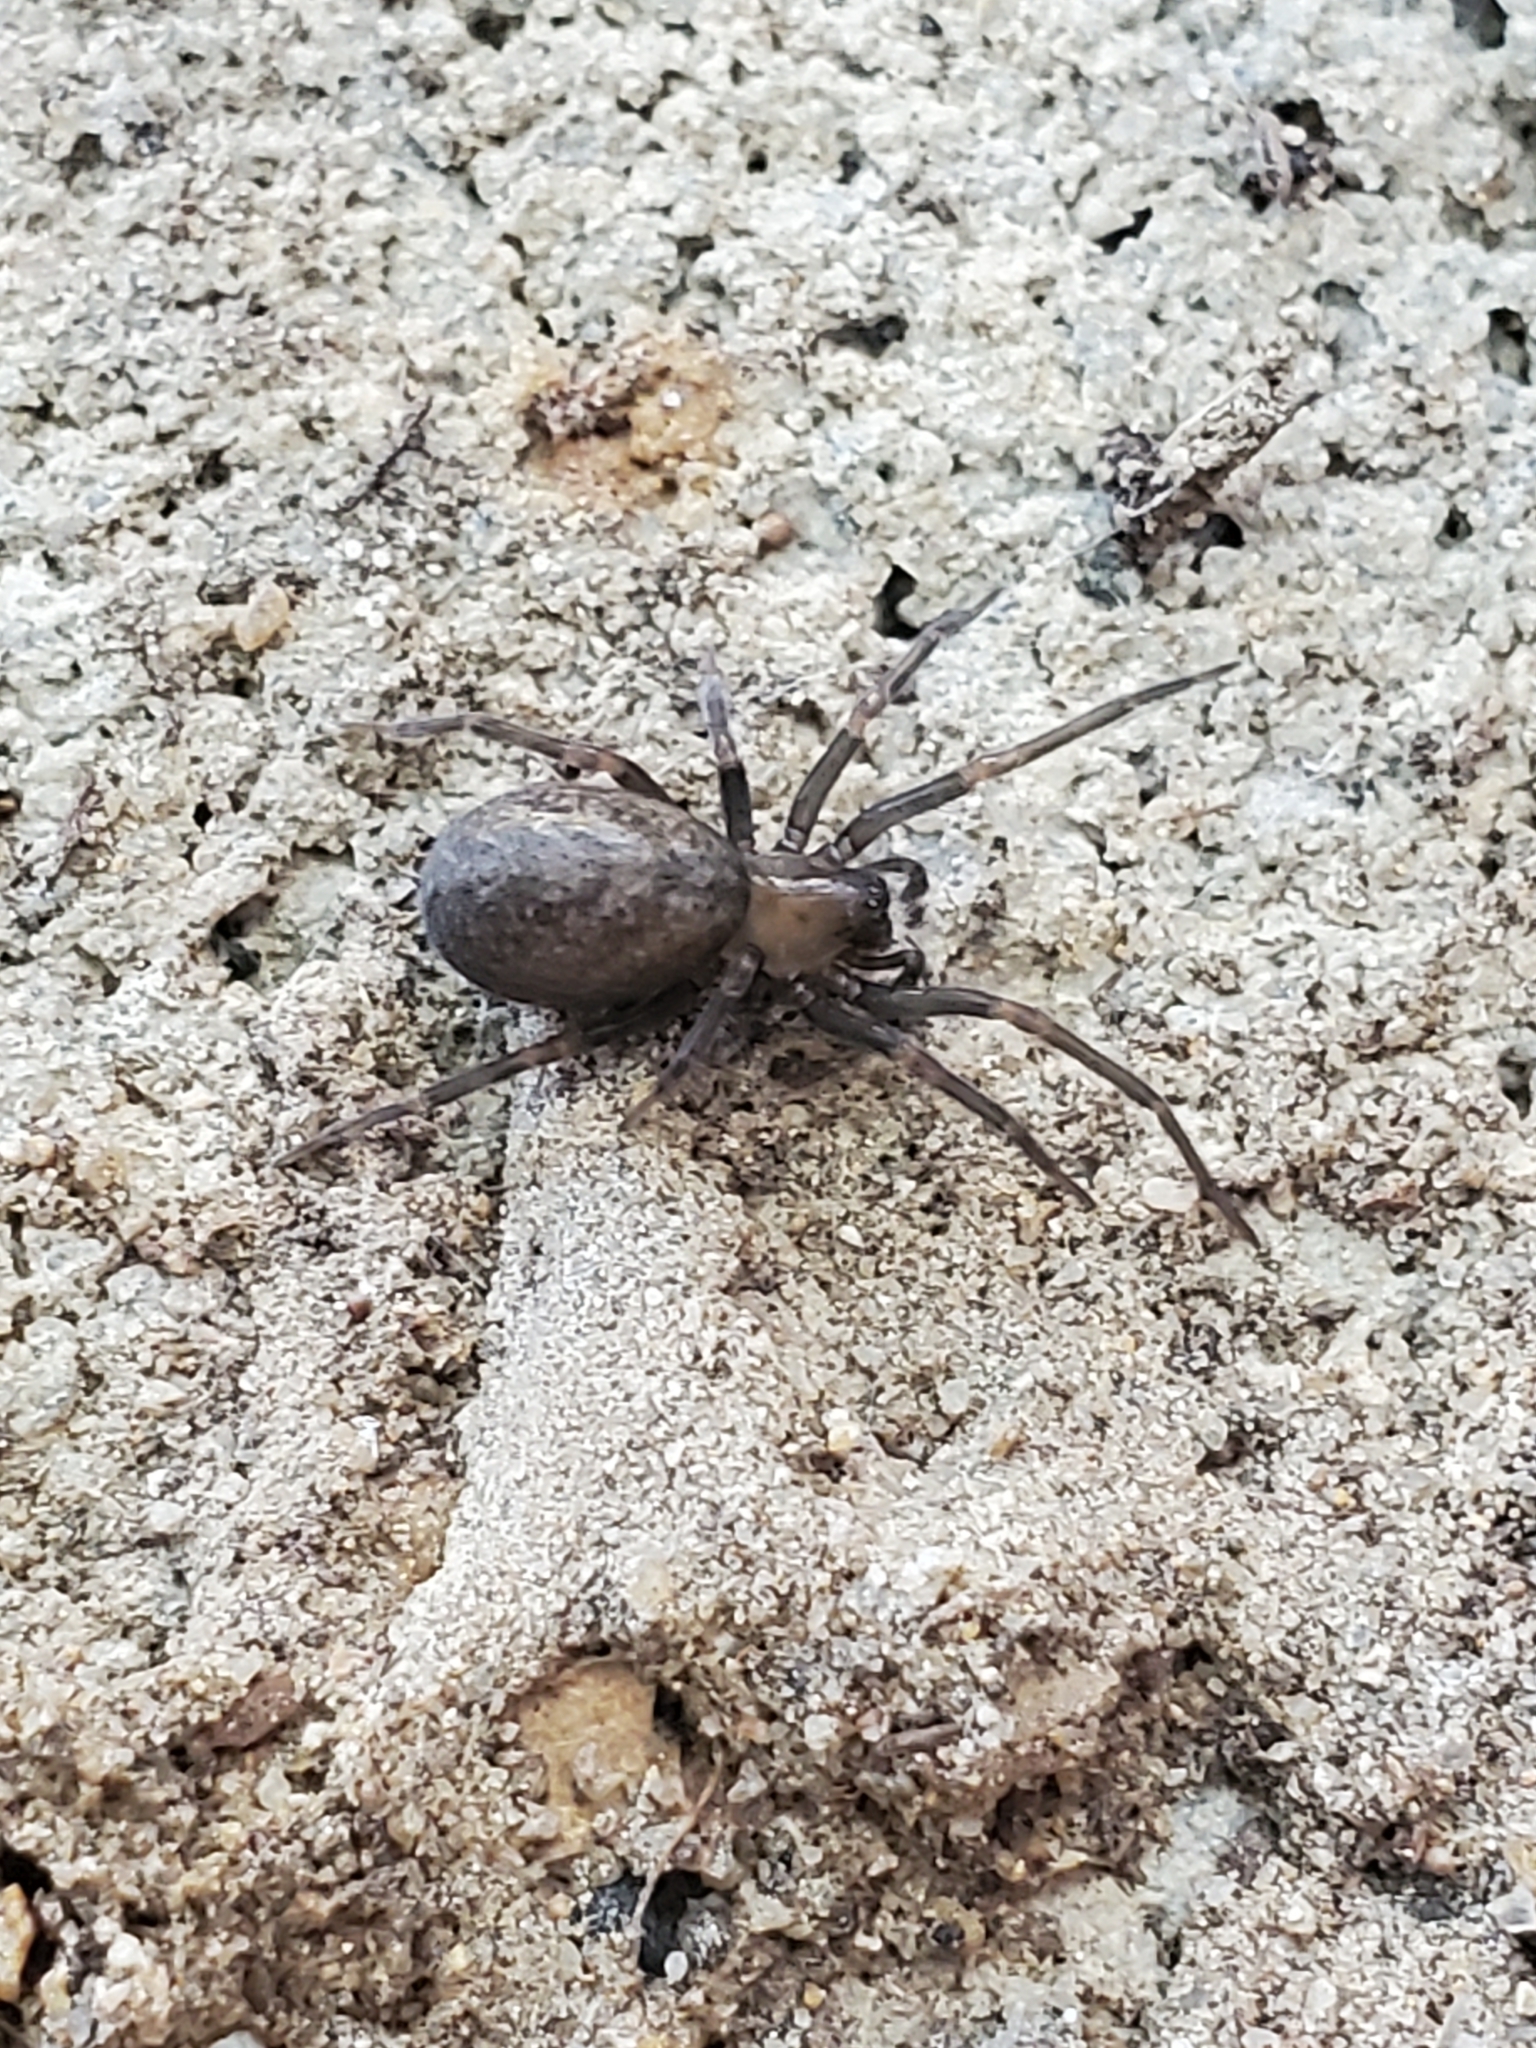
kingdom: Animalia
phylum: Arthropoda
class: Arachnida
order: Araneae
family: Desidae
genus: Metaltella
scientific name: Metaltella simoni
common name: Cribellate spider
